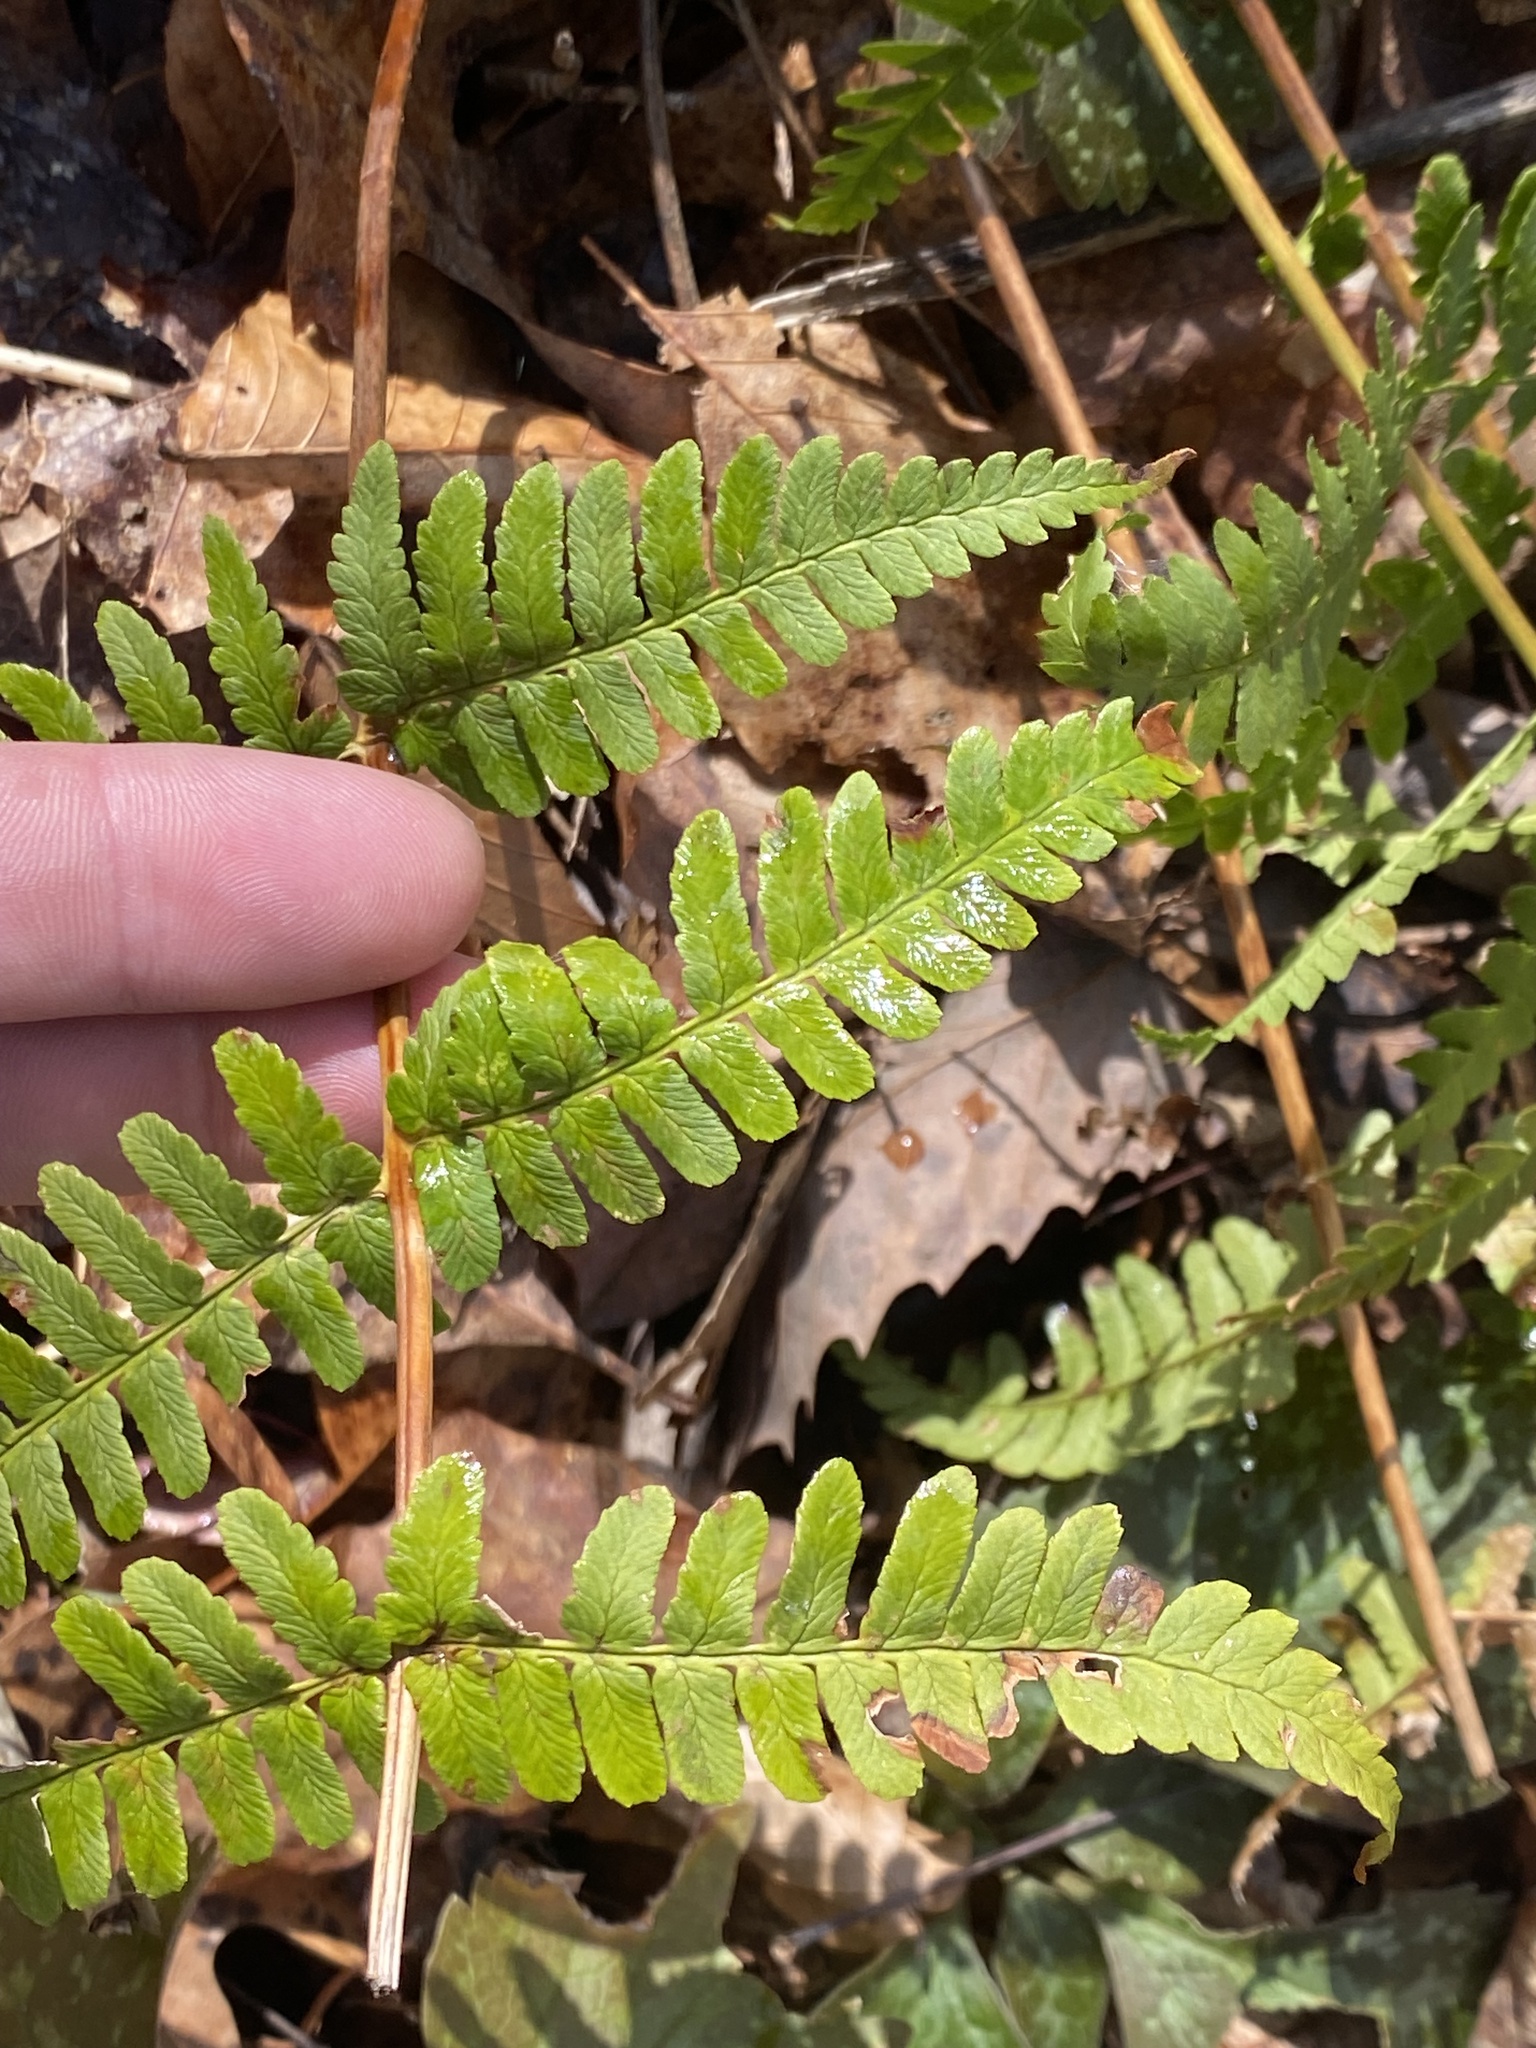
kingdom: Plantae
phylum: Tracheophyta
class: Polypodiopsida
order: Polypodiales
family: Dryopteridaceae
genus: Dryopteris
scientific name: Dryopteris marginalis
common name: Marginal wood fern
